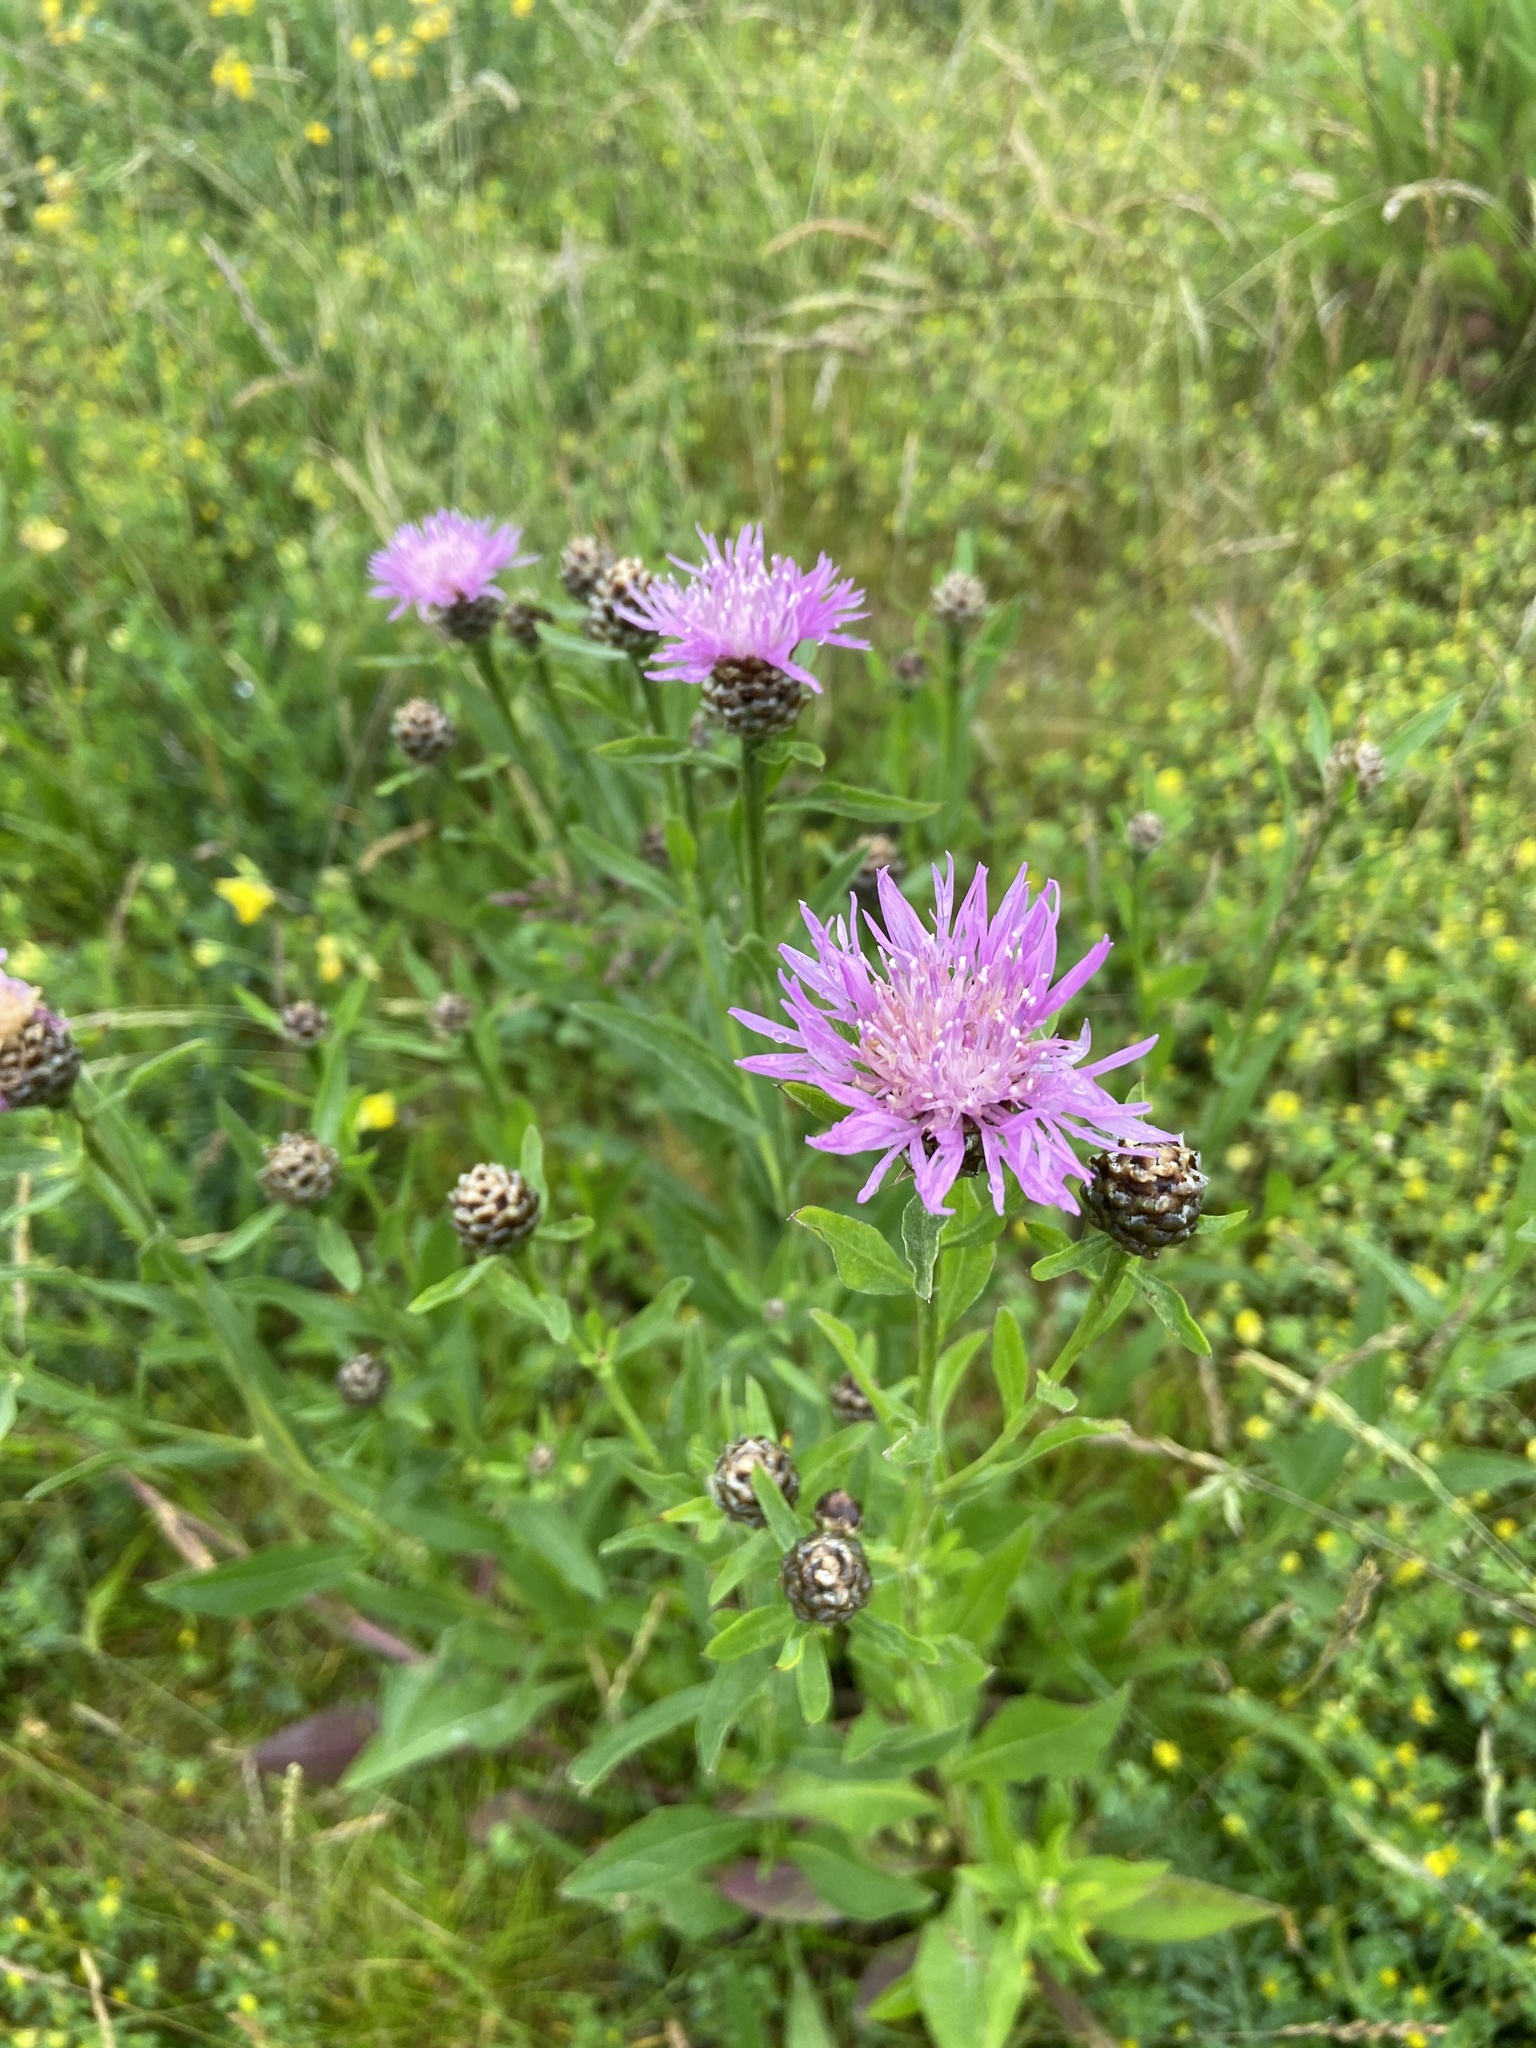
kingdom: Plantae
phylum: Tracheophyta
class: Magnoliopsida
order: Asterales
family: Asteraceae
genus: Centaurea
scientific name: Centaurea jacea
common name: Brown knapweed
